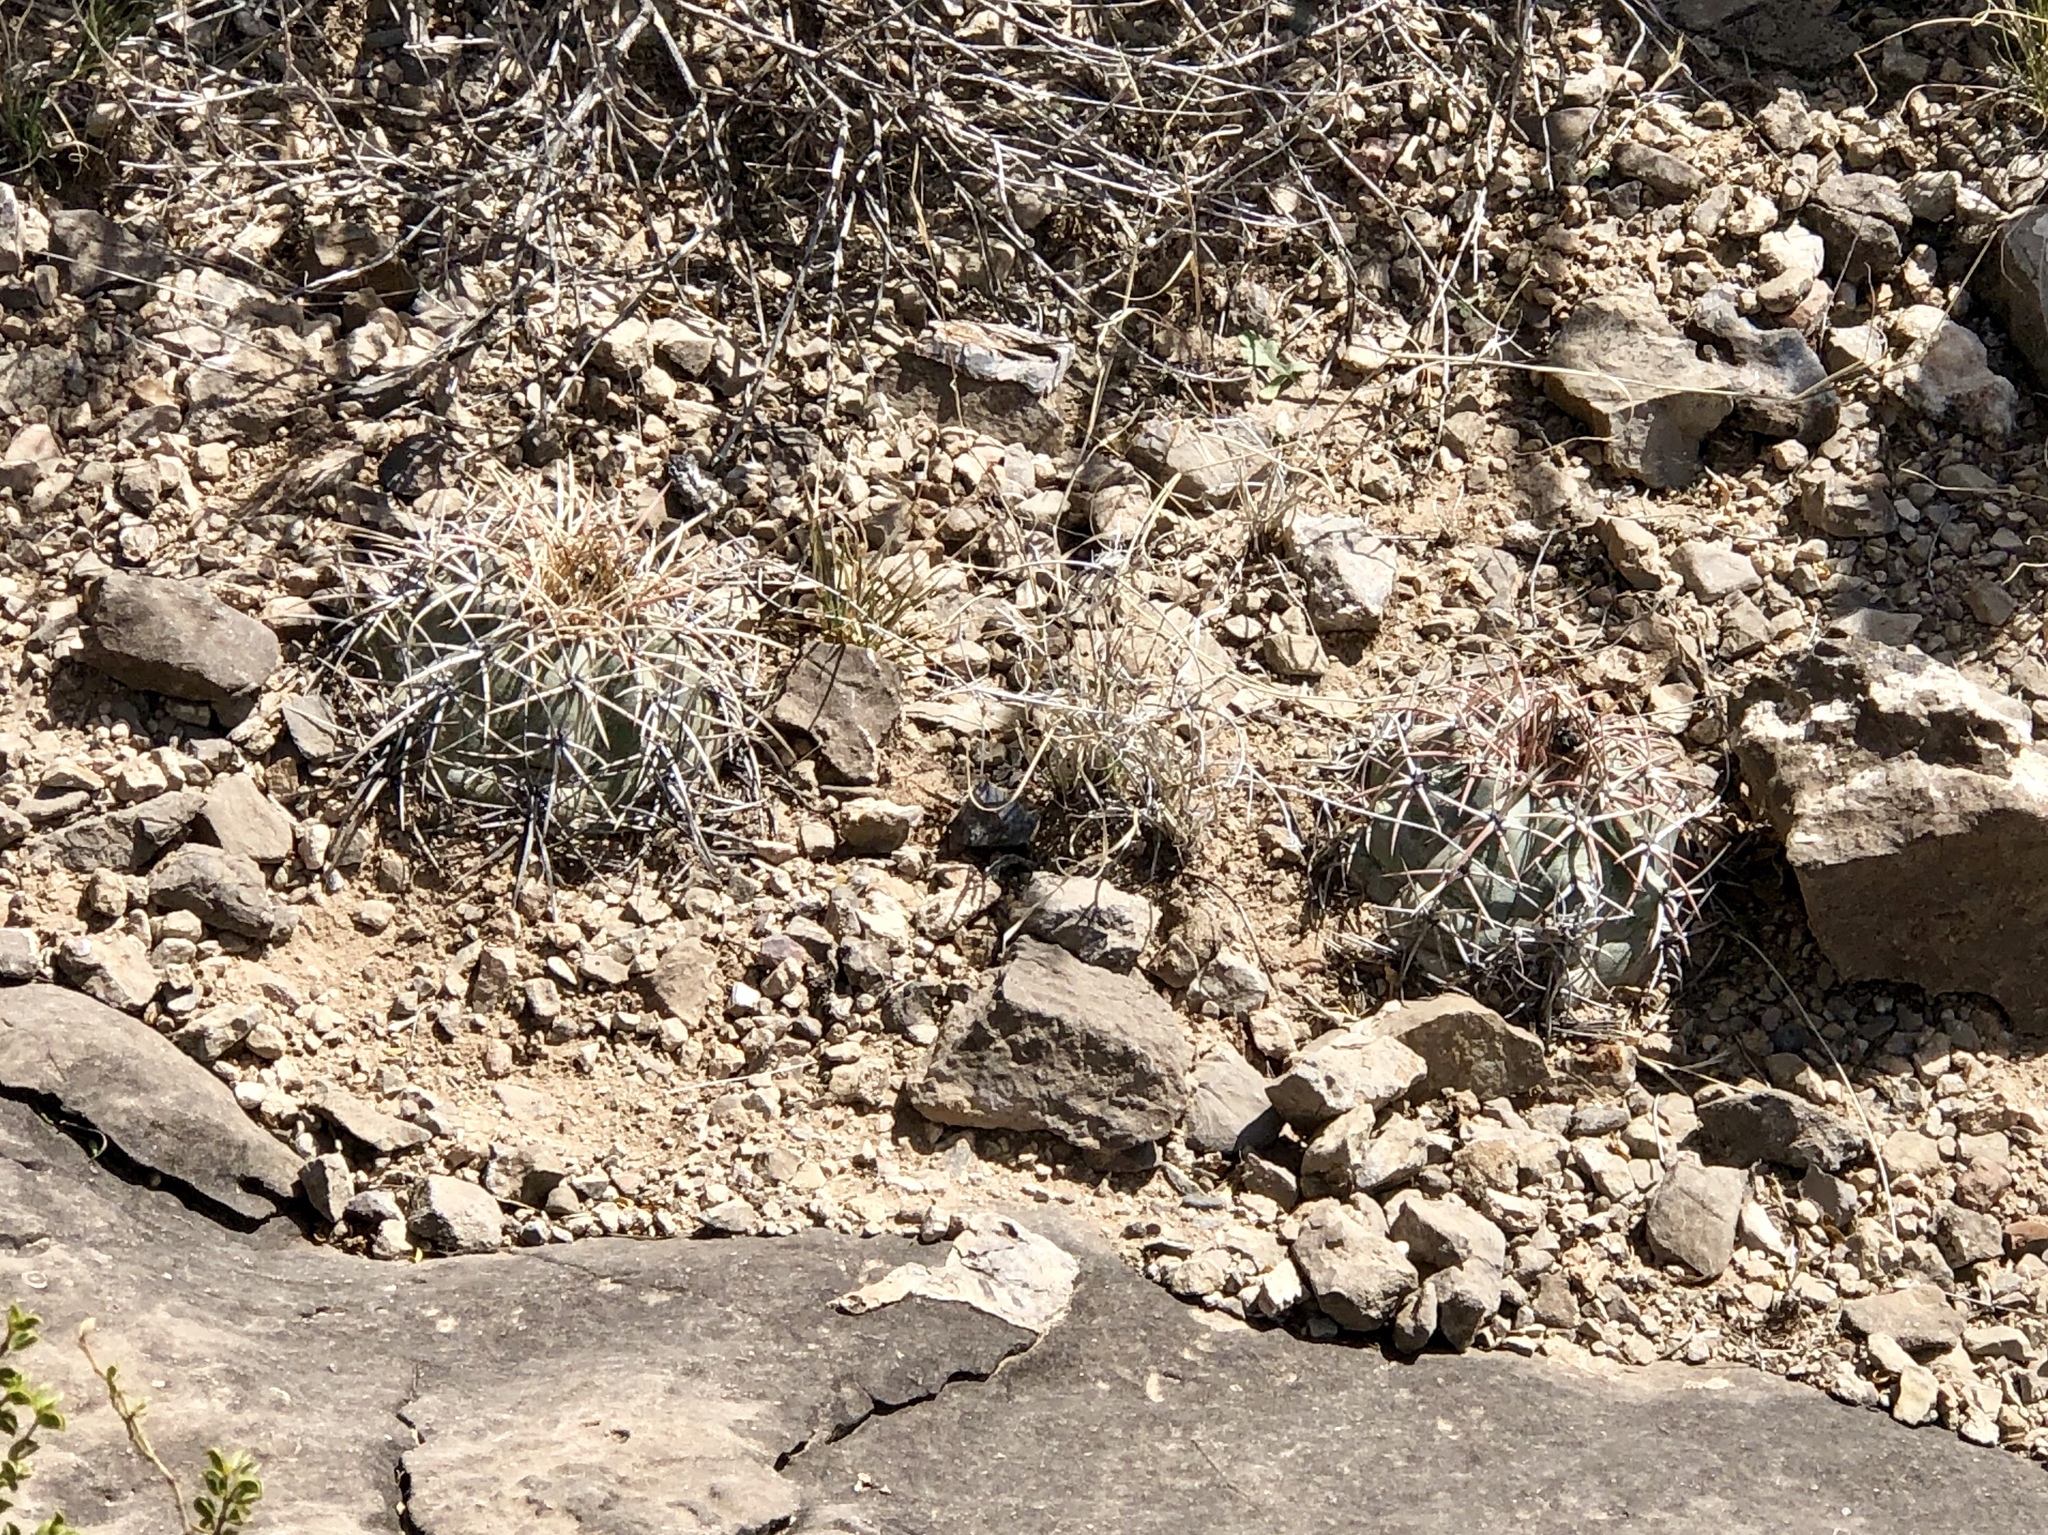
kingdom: Plantae
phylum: Tracheophyta
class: Magnoliopsida
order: Caryophyllales
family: Cactaceae
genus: Echinocactus
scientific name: Echinocactus horizonthalonius
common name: Devilshead
